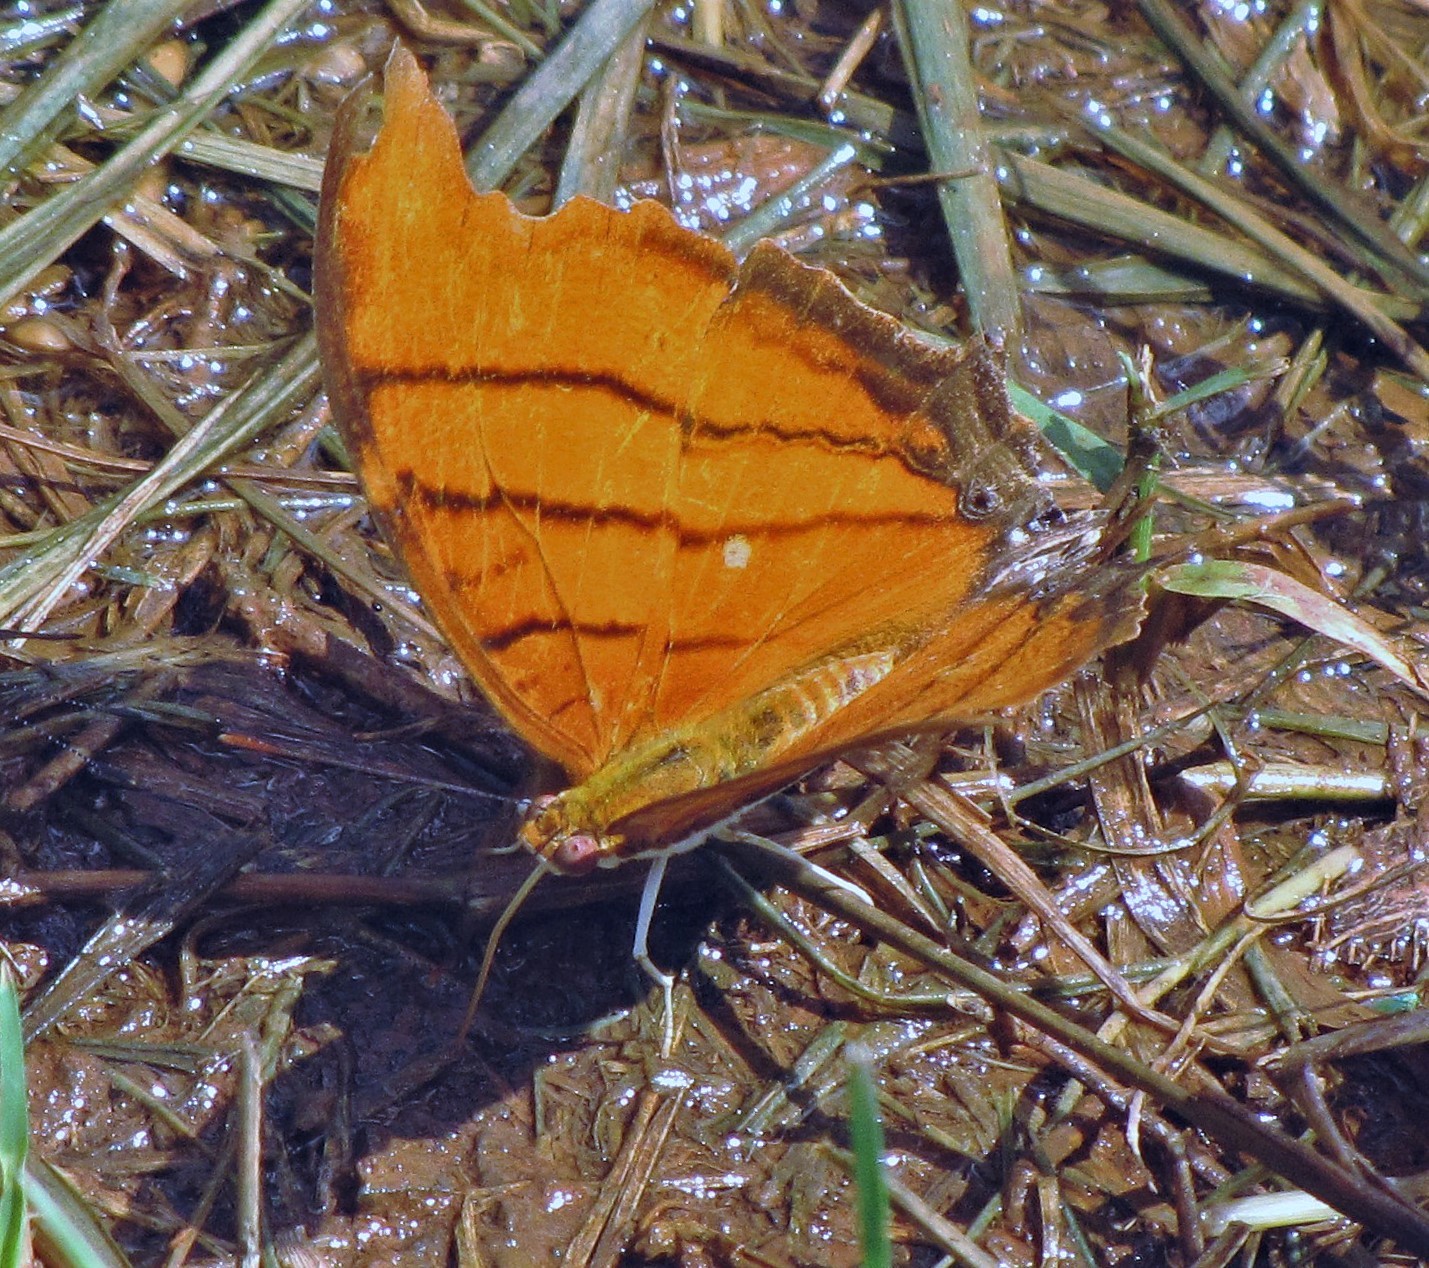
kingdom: Animalia
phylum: Arthropoda
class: Insecta
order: Lepidoptera
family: Nymphalidae
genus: Marpesia
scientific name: Marpesia petreus
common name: Red dagger wing
